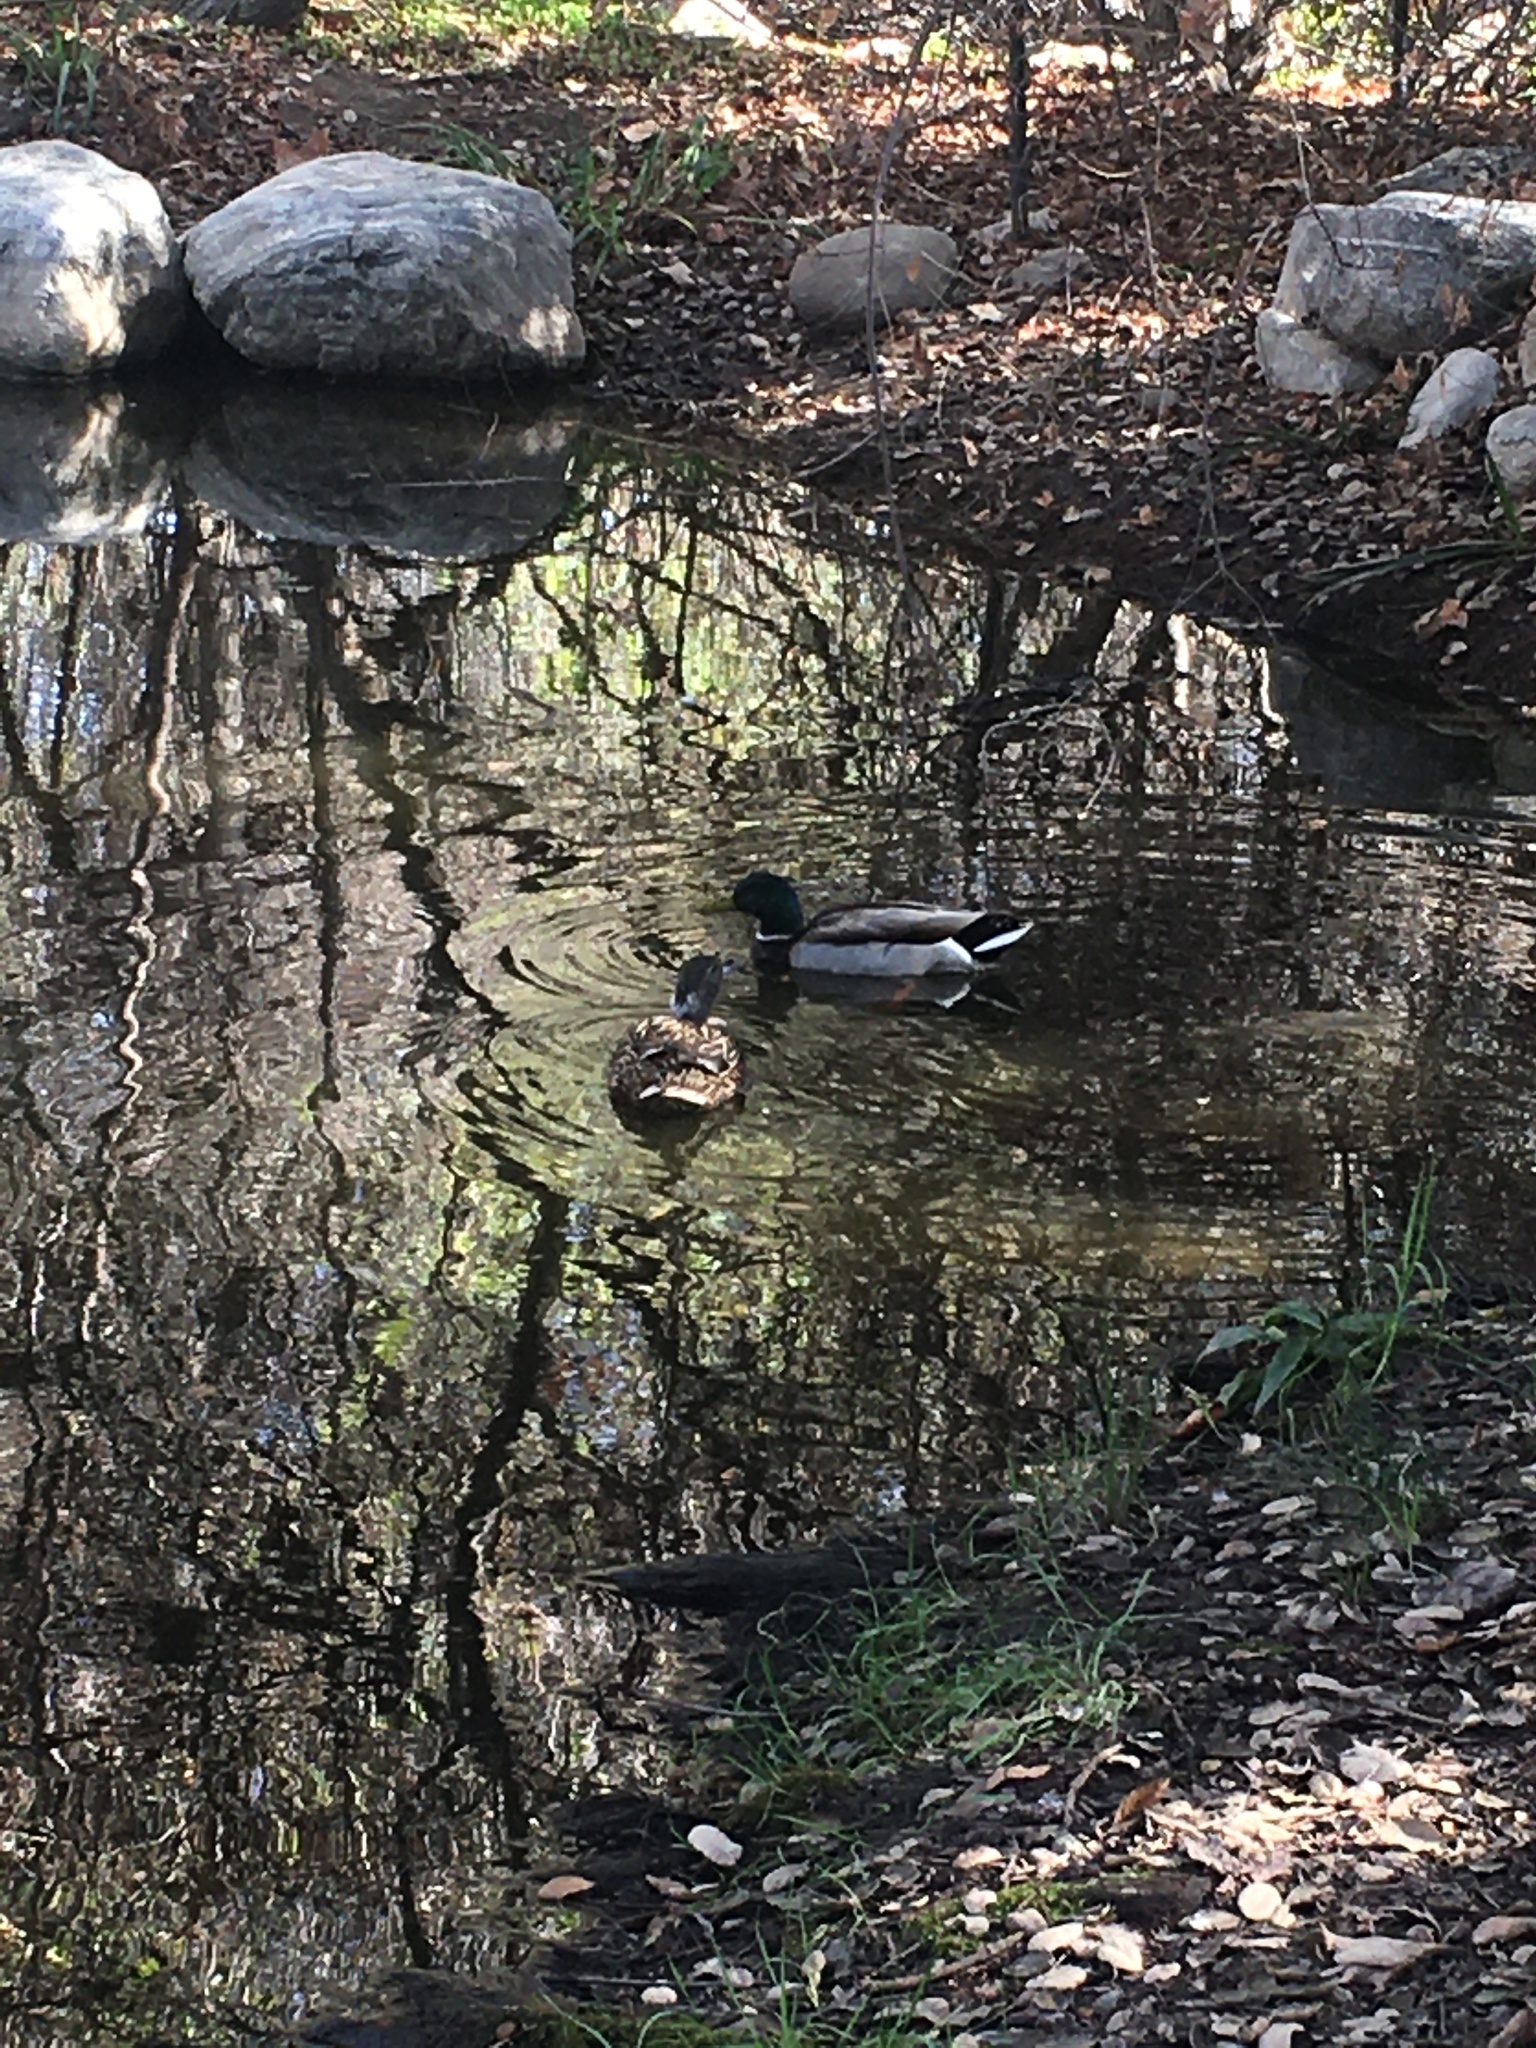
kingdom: Animalia
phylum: Chordata
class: Aves
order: Anseriformes
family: Anatidae
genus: Anas
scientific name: Anas platyrhynchos
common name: Mallard
